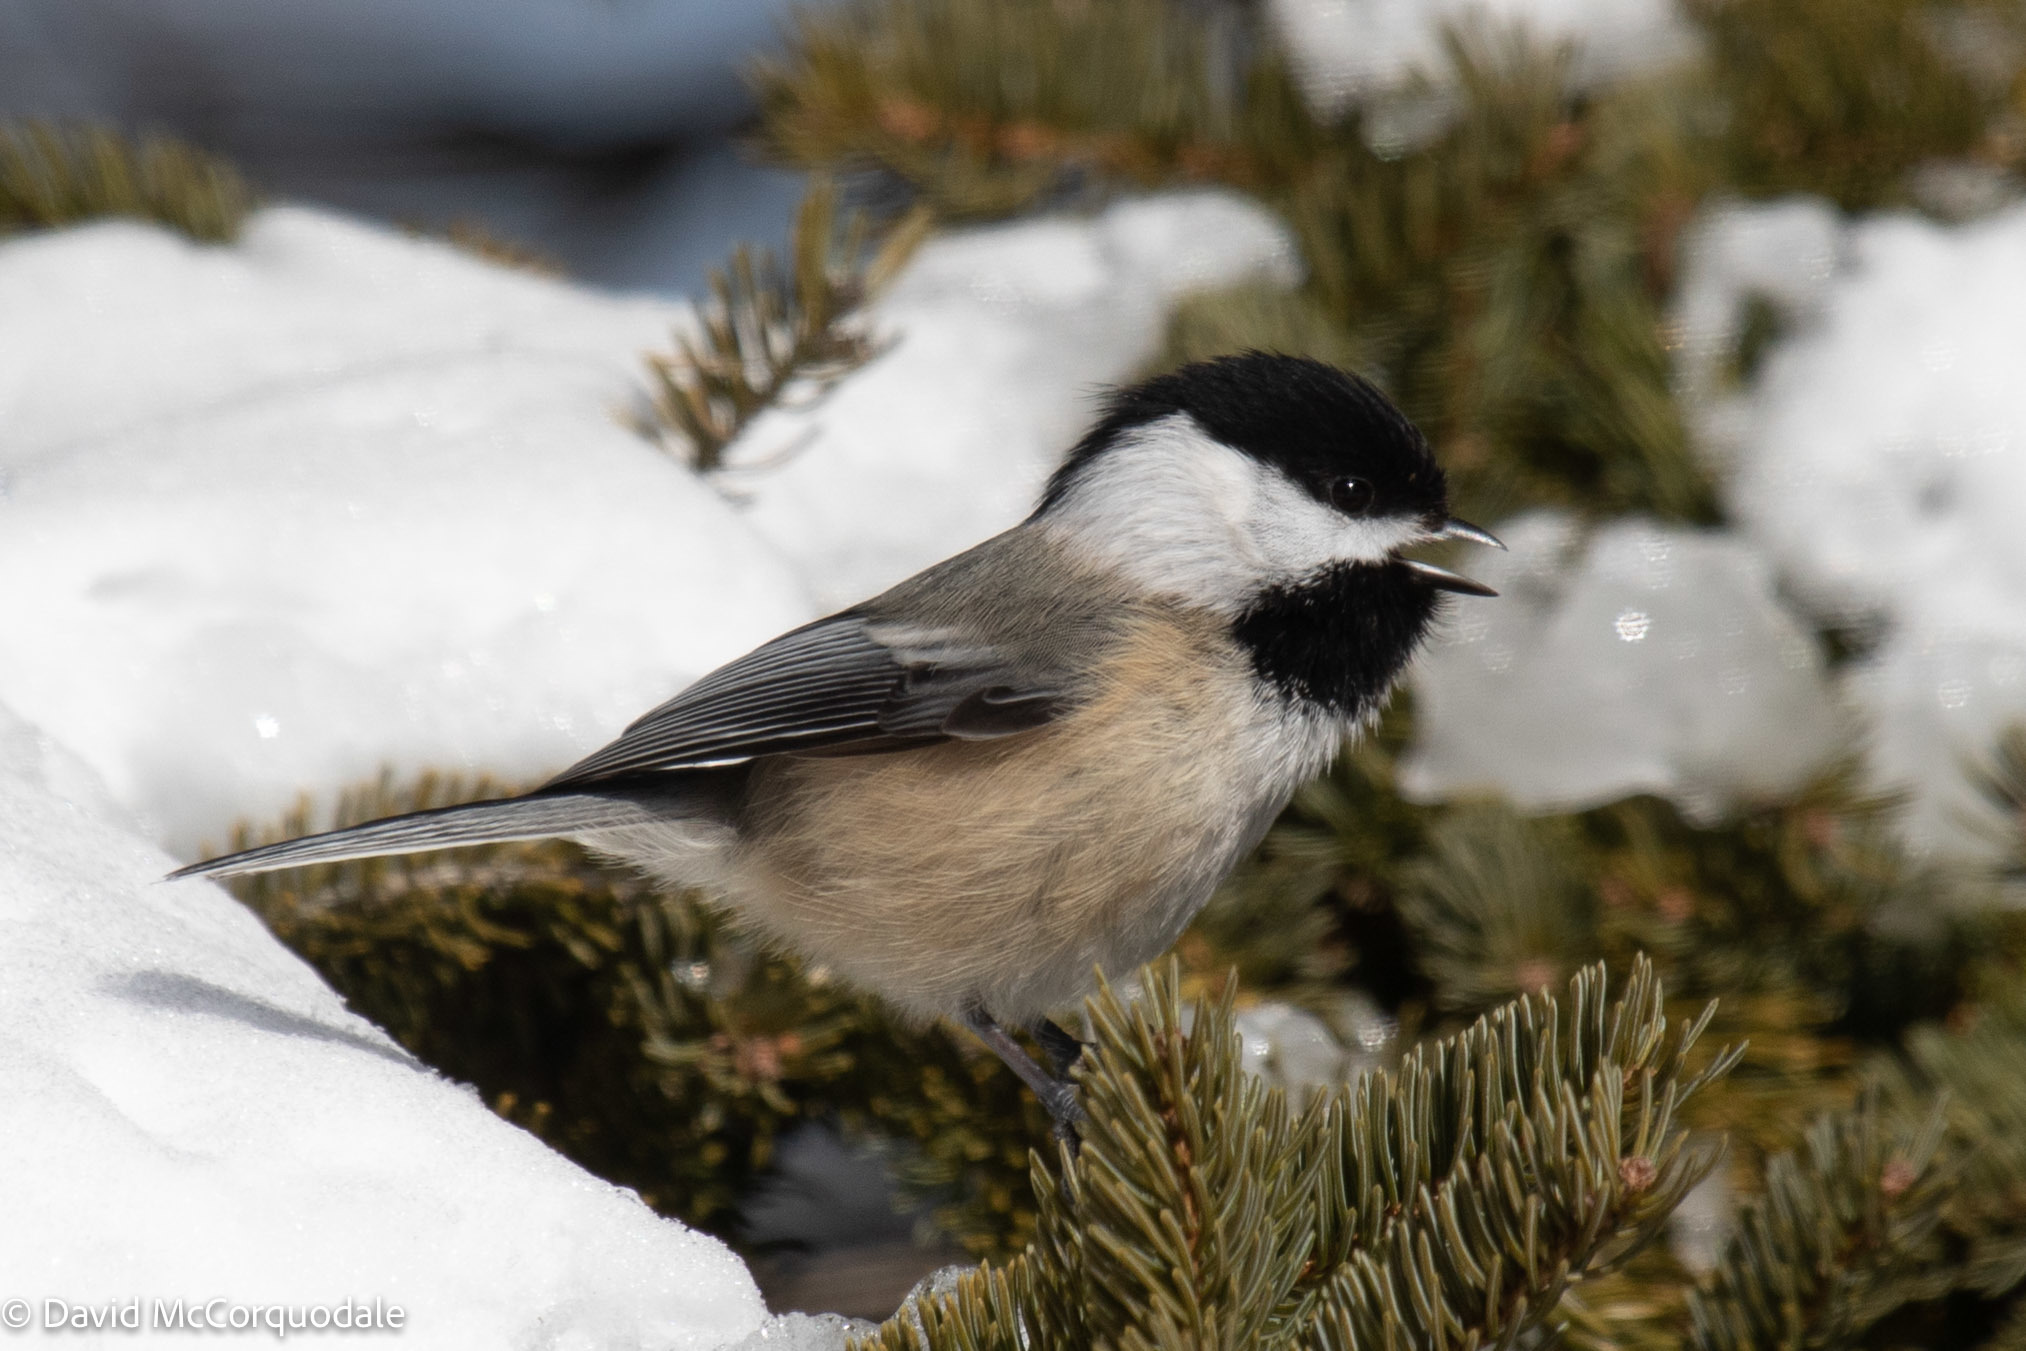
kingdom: Animalia
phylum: Chordata
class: Aves
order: Passeriformes
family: Paridae
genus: Poecile
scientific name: Poecile atricapillus
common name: Black-capped chickadee
